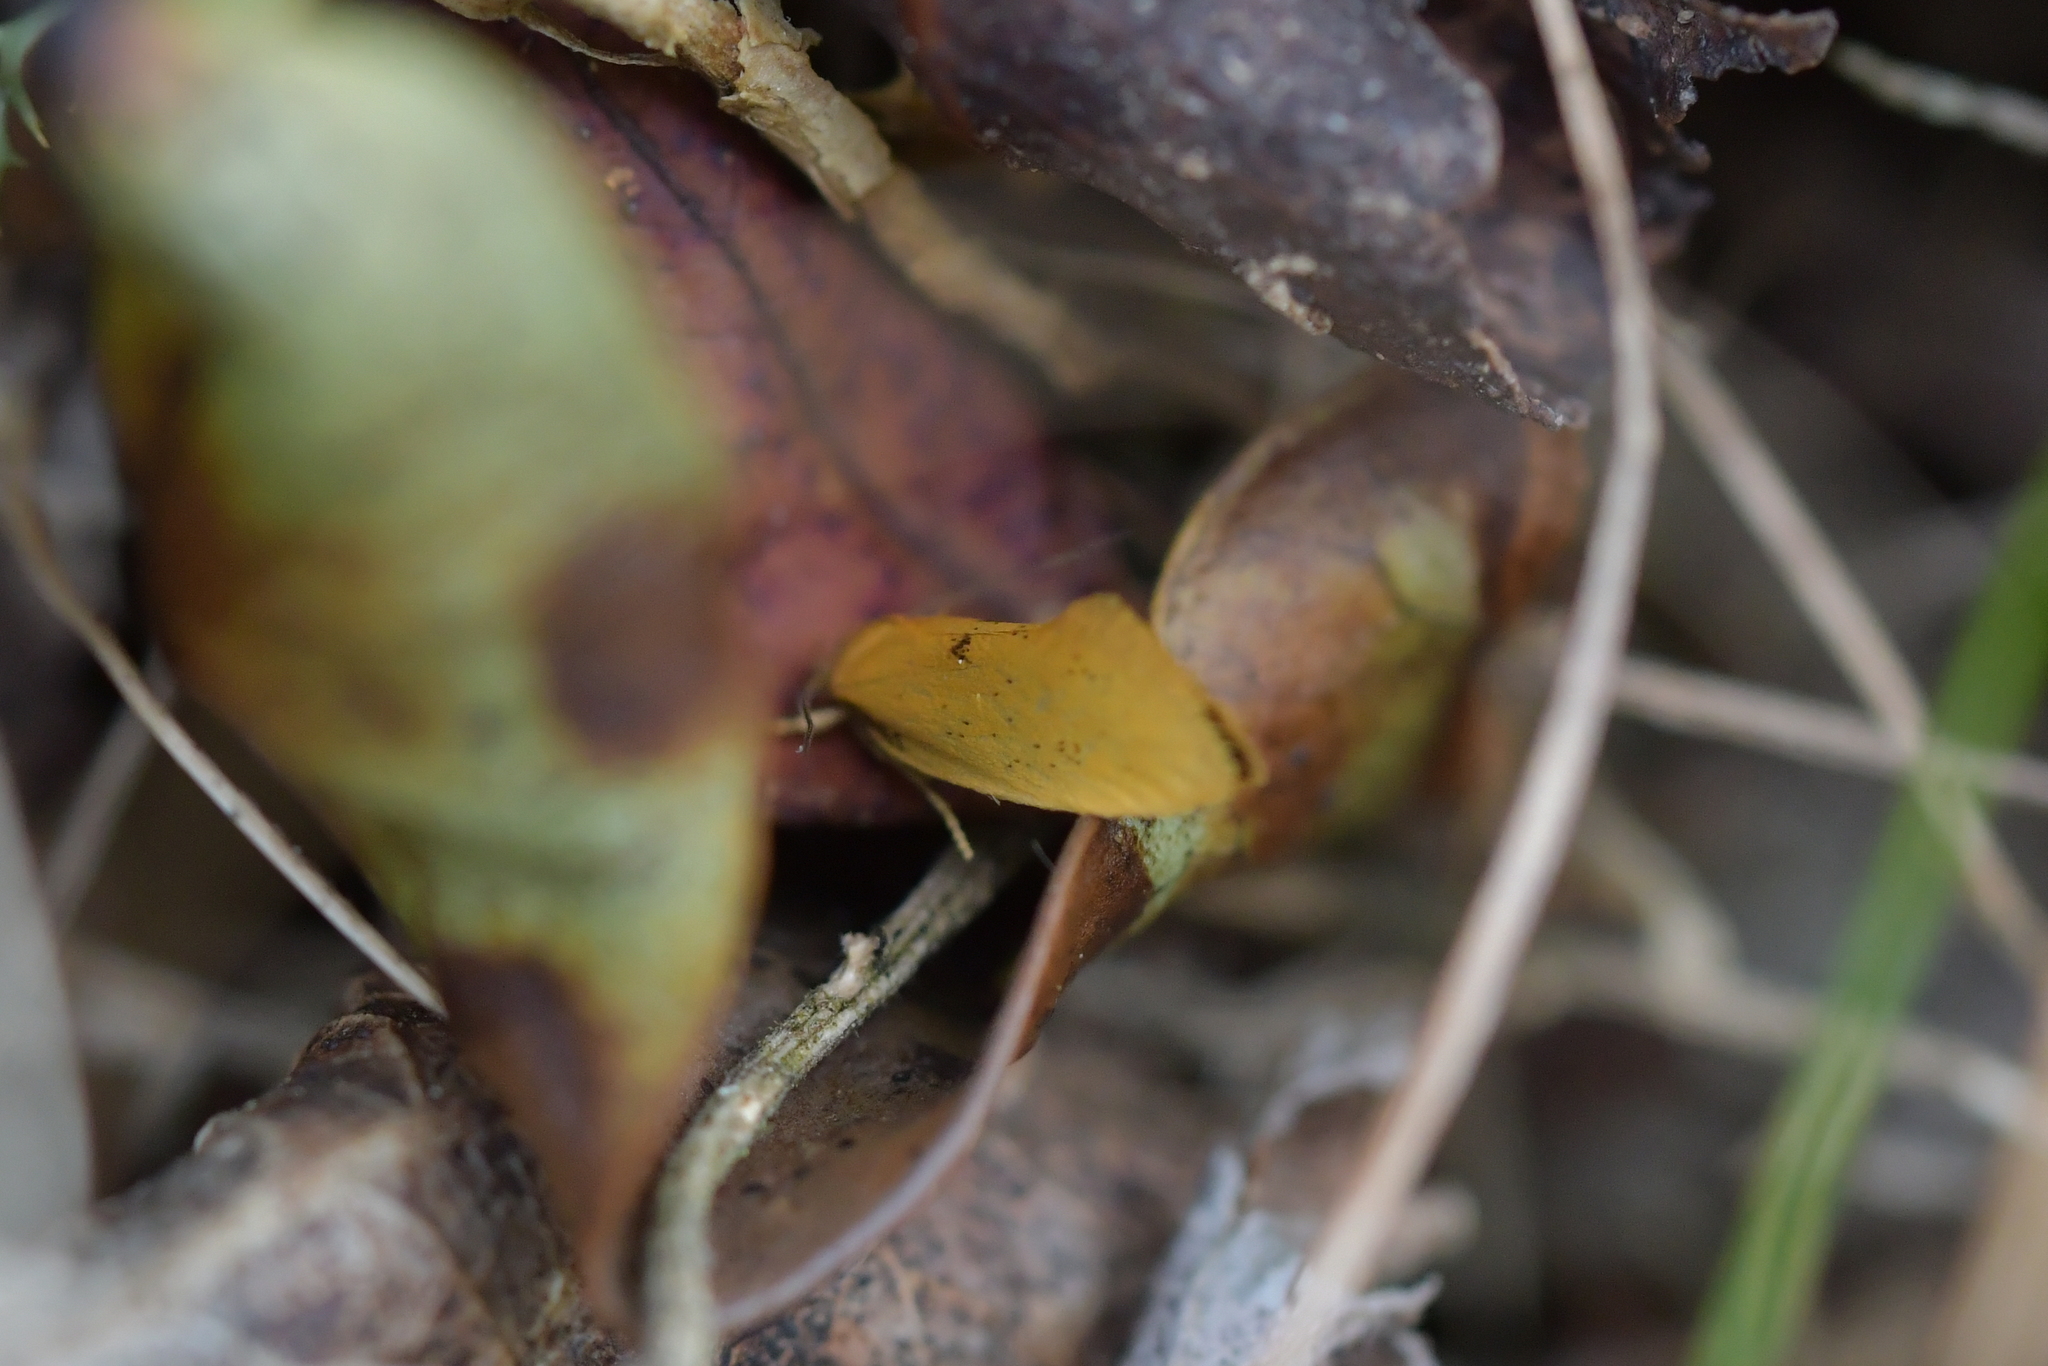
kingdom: Animalia
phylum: Arthropoda
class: Insecta
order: Lepidoptera
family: Oecophoridae
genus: Tingena
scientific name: Tingena armigerella
